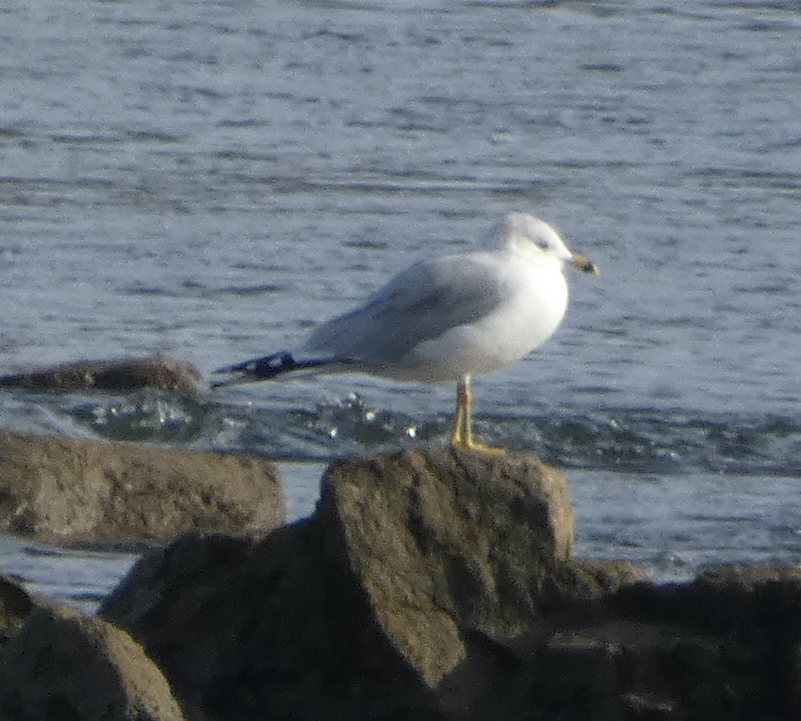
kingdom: Animalia
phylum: Chordata
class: Aves
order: Charadriiformes
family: Laridae
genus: Larus
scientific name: Larus delawarensis
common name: Ring-billed gull
